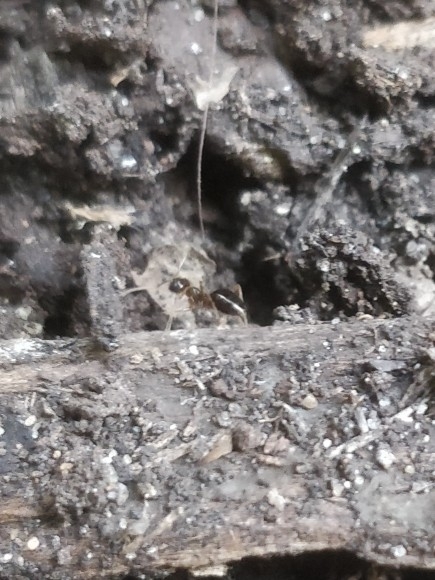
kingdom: Animalia
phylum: Arthropoda
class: Insecta
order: Hymenoptera
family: Formicidae
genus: Prenolepis
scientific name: Prenolepis imparis
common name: Small honey ant
